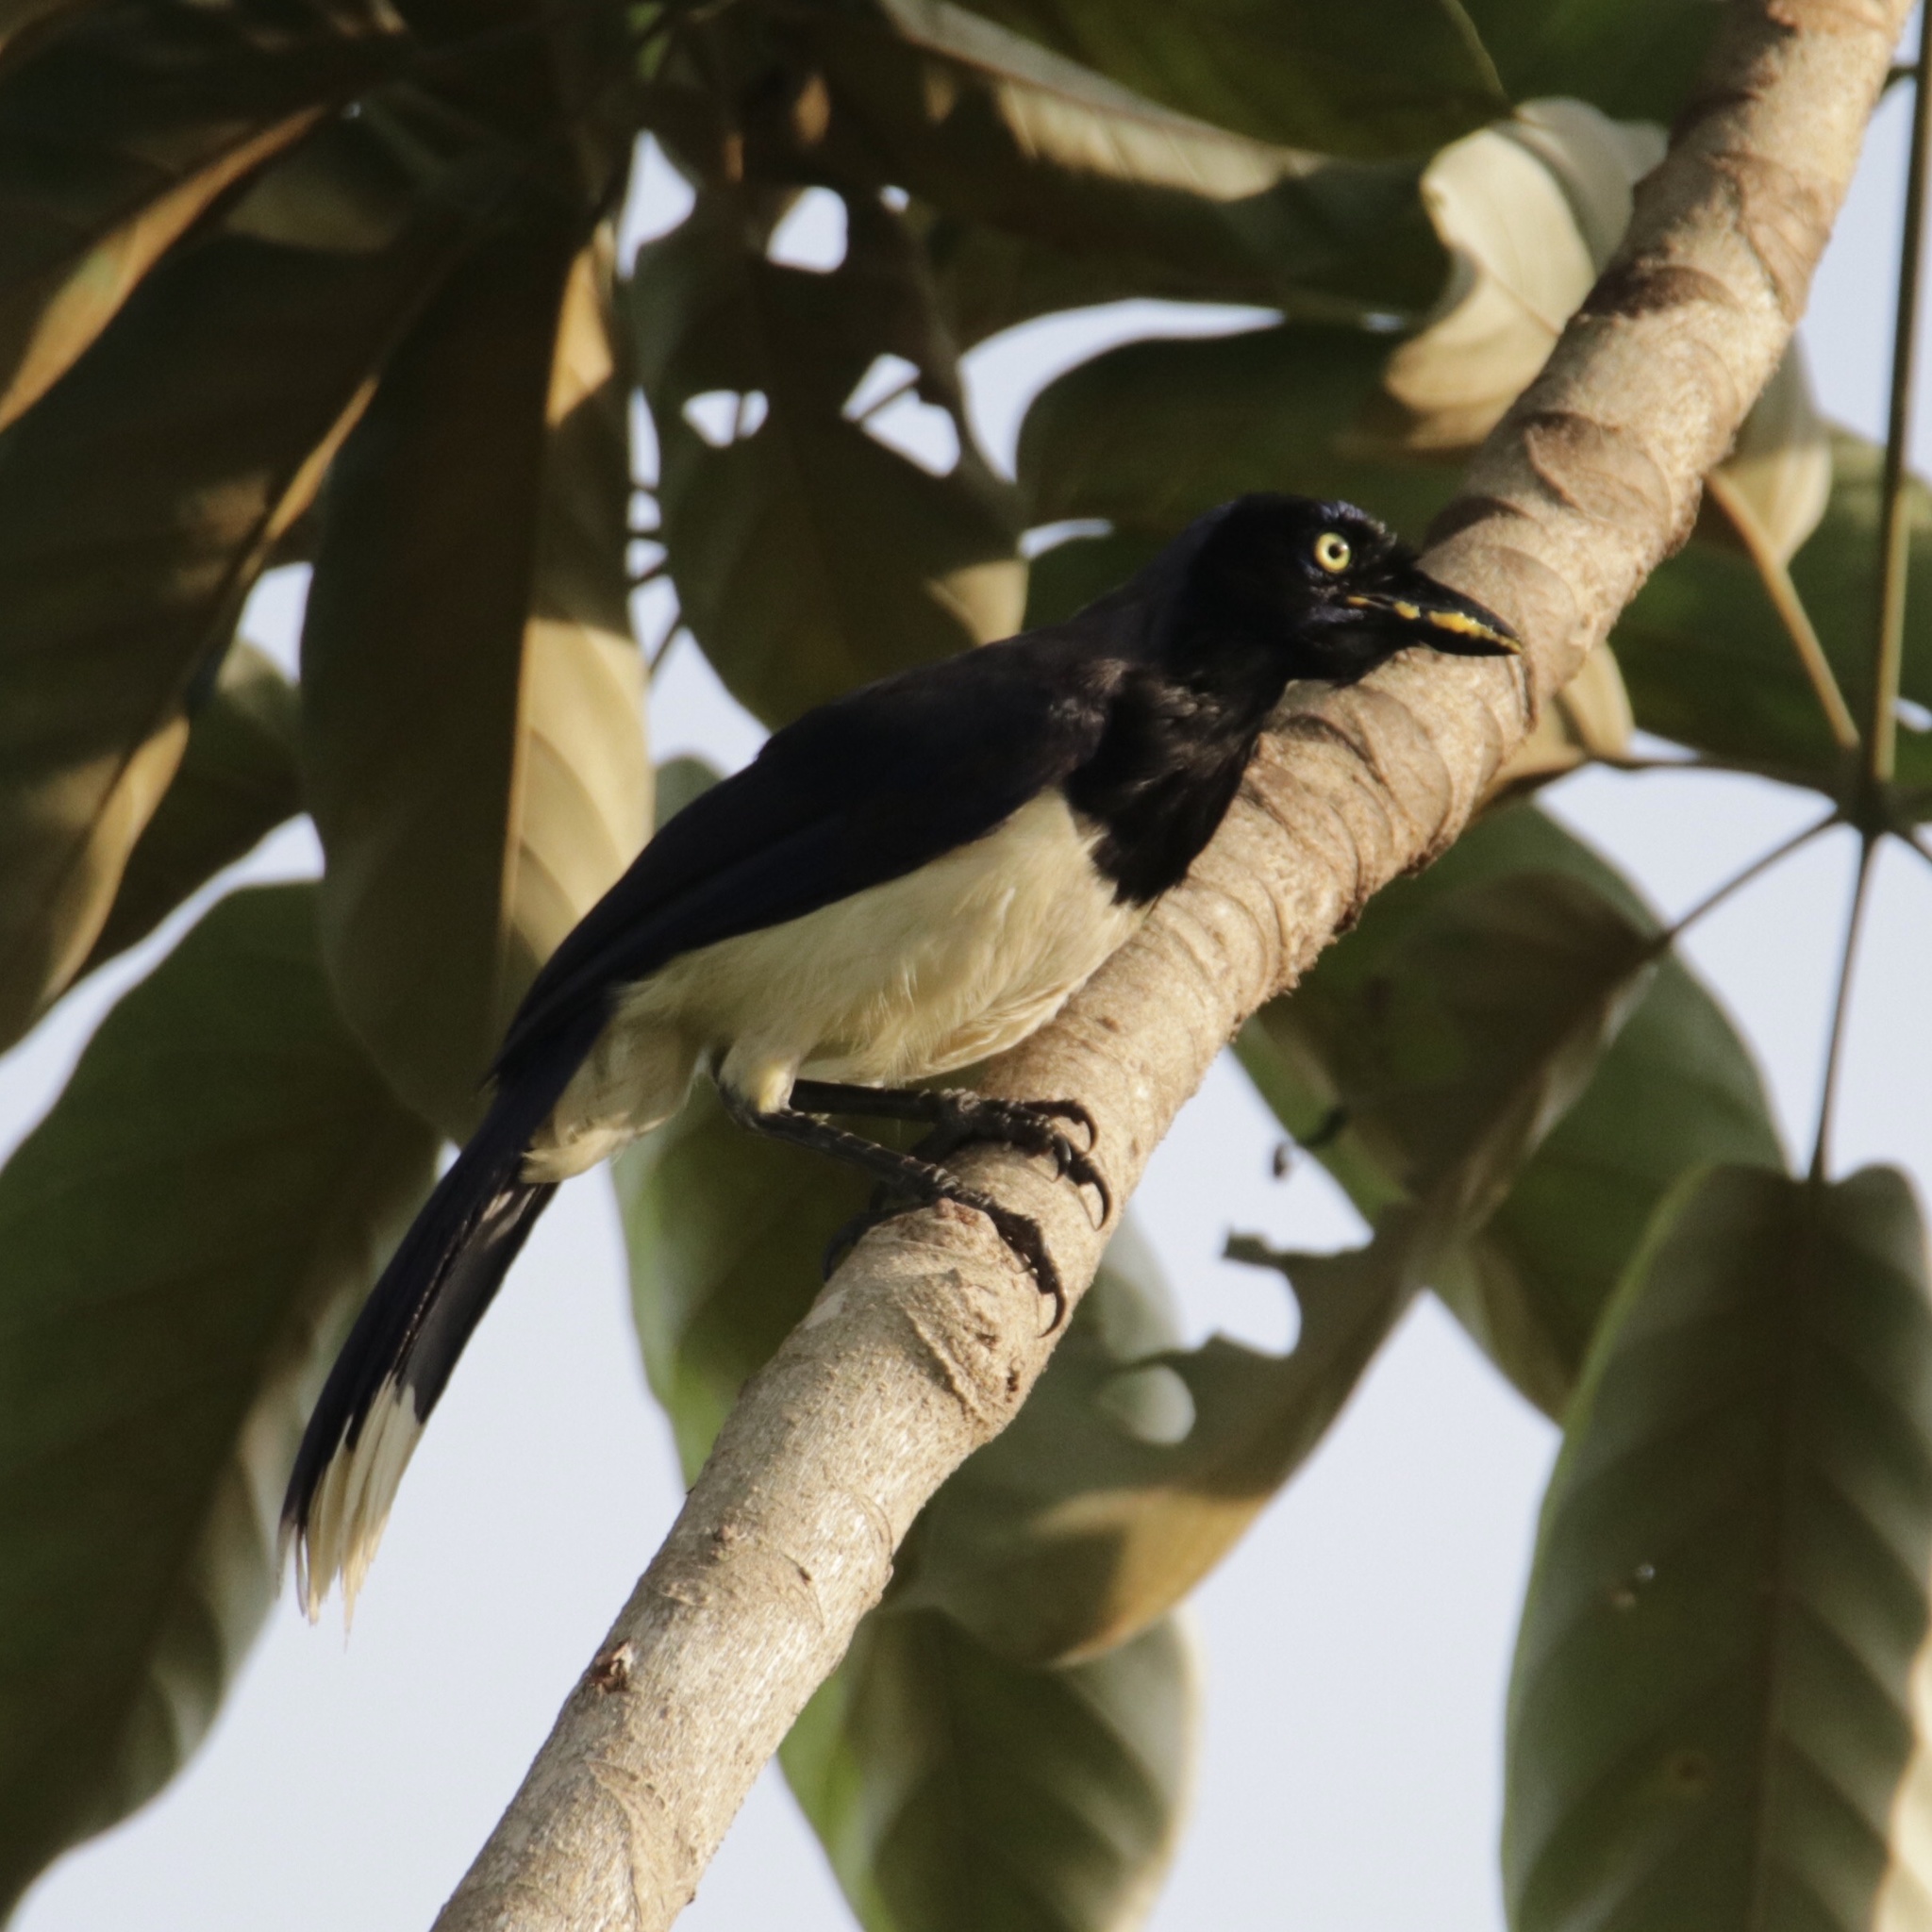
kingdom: Animalia
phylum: Chordata
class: Aves
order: Passeriformes
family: Corvidae
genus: Cyanocorax
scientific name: Cyanocorax affinis
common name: Black-chested jay
